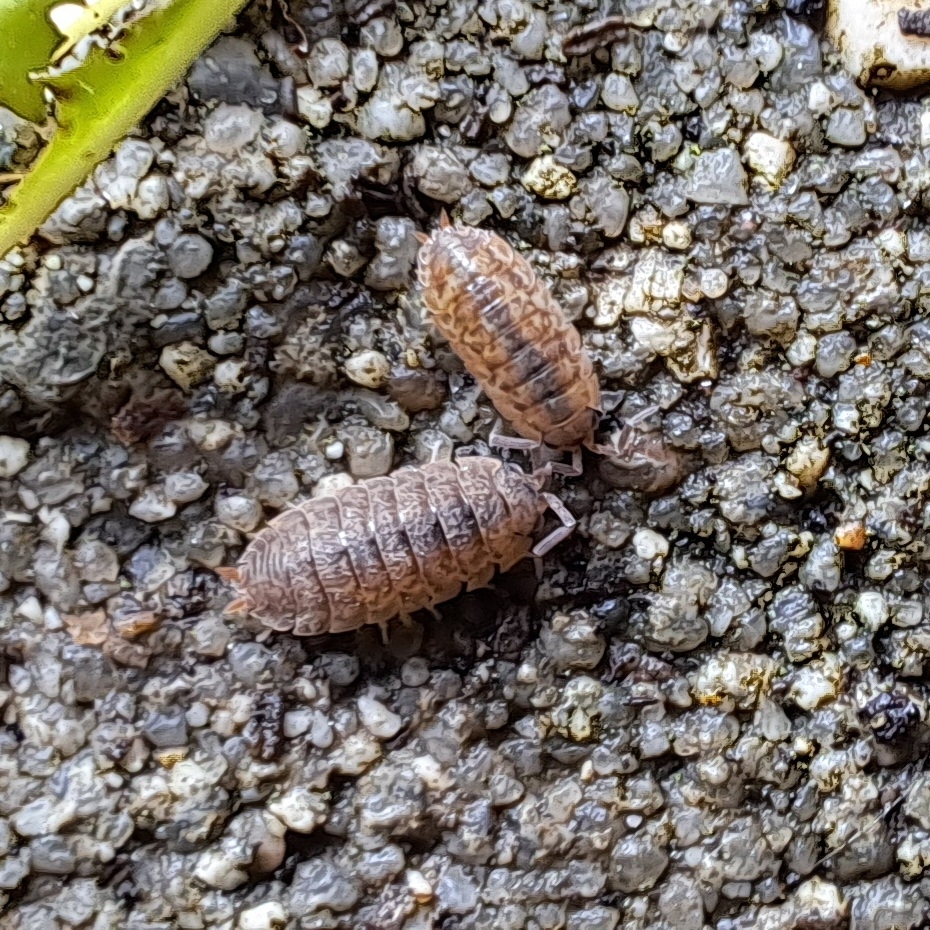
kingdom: Animalia
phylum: Arthropoda
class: Malacostraca
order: Isopoda
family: Porcellionidae
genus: Porcellio
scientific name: Porcellio scaber
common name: Common rough woodlouse
